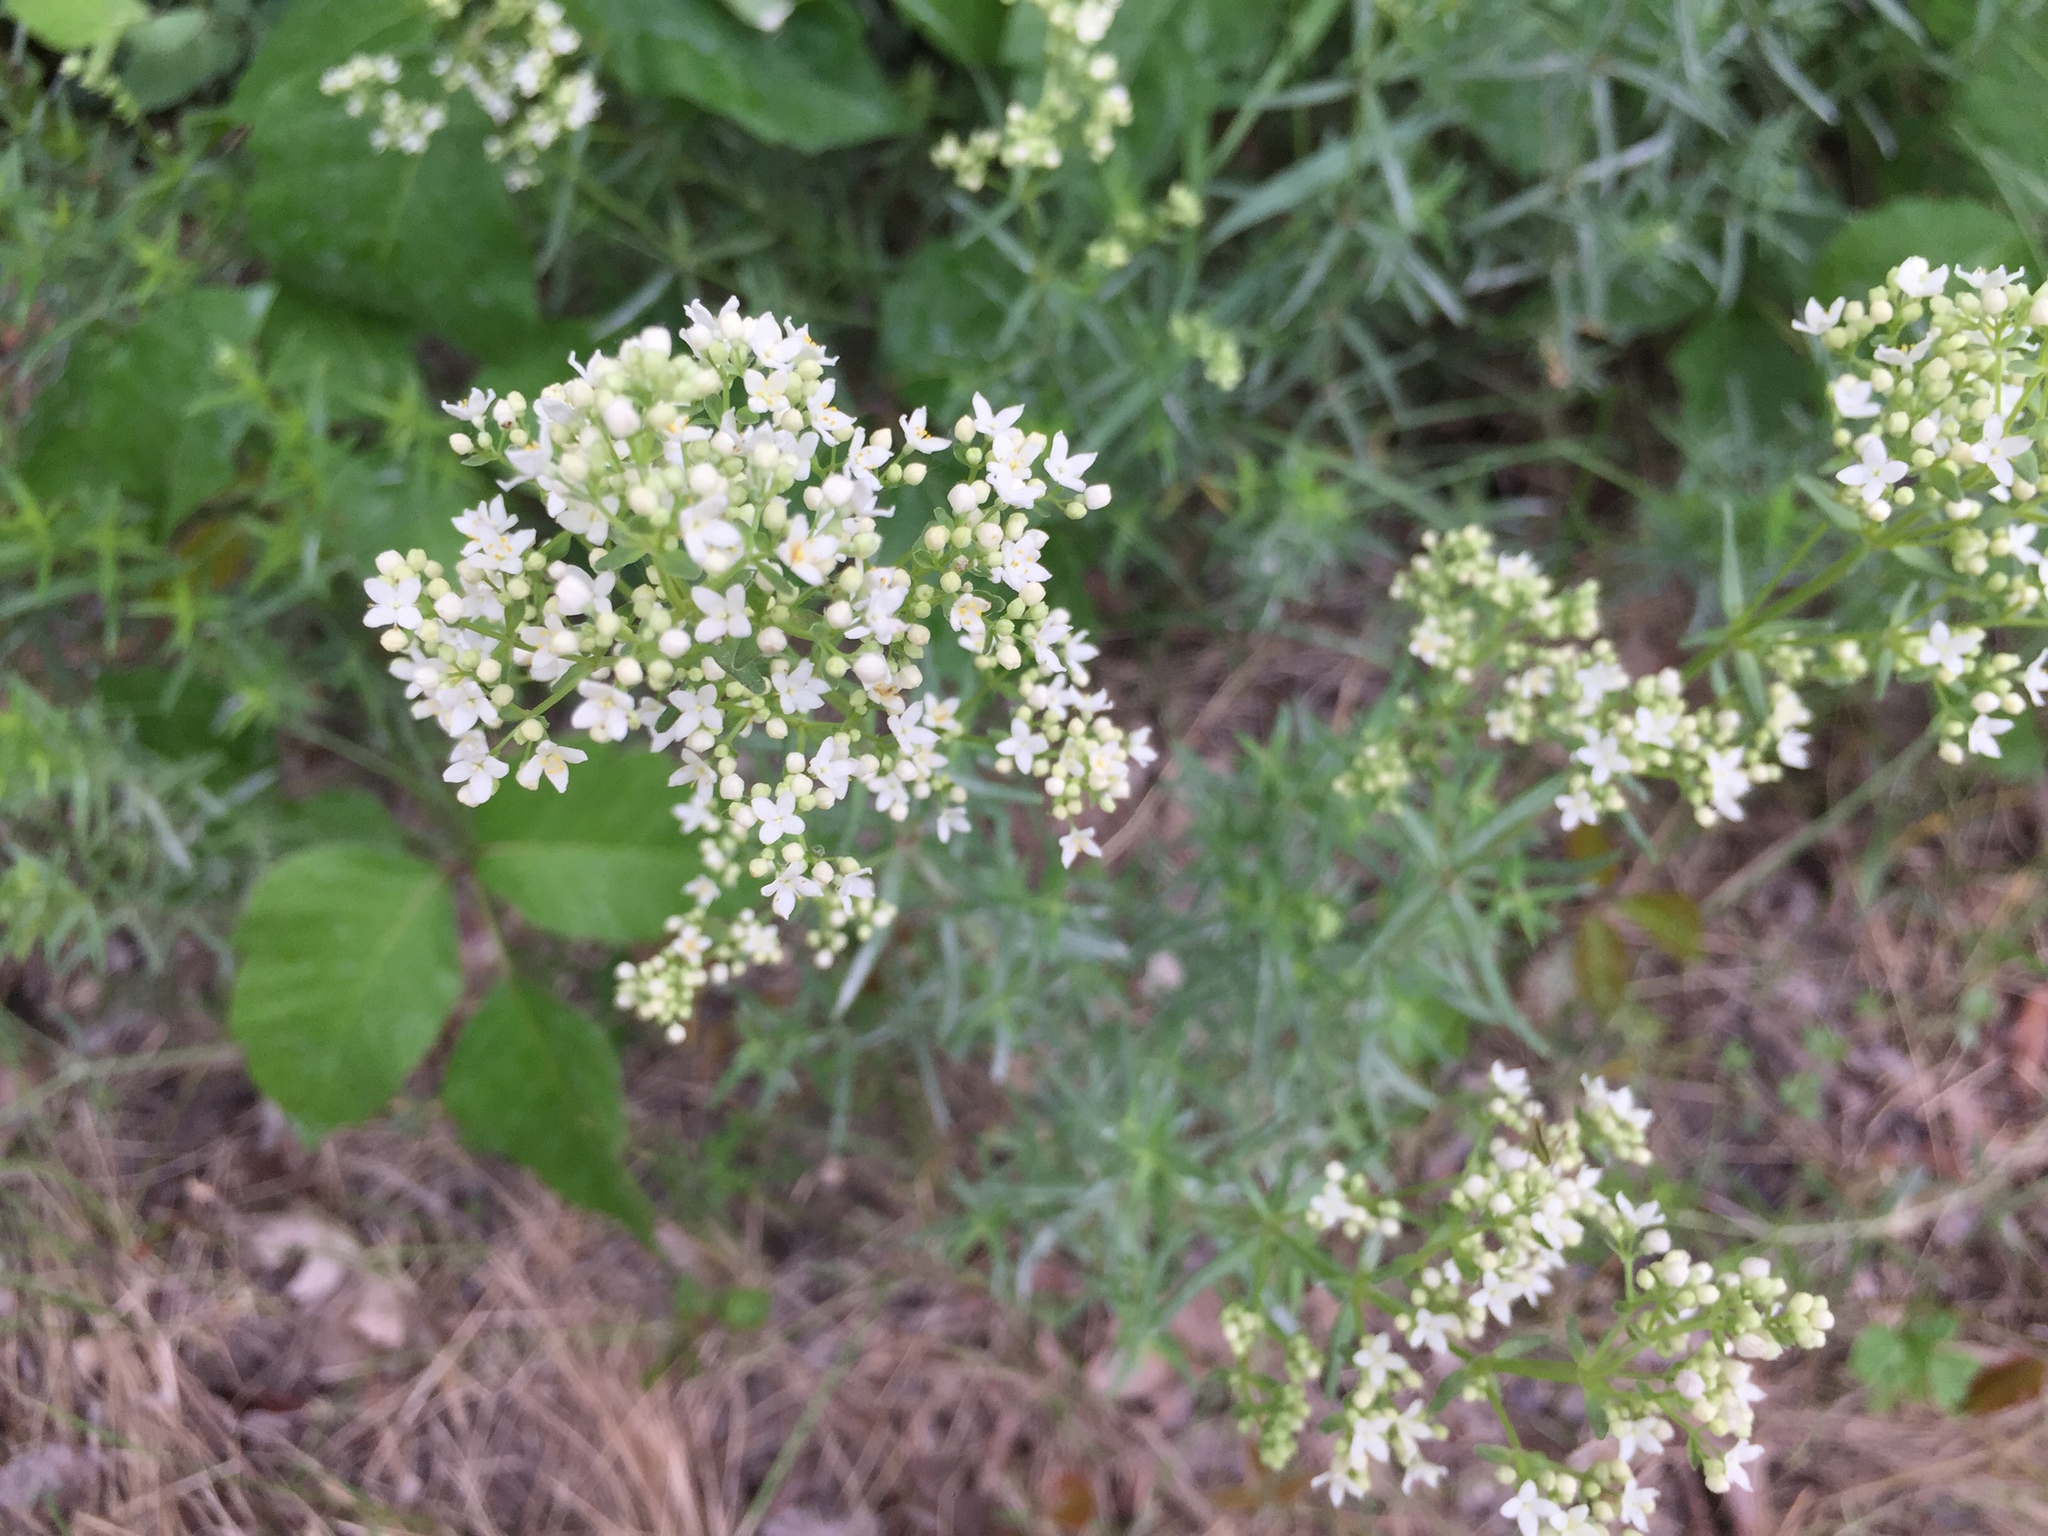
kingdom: Plantae
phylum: Tracheophyta
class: Magnoliopsida
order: Gentianales
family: Rubiaceae
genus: Galium
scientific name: Galium boreale
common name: Northern bedstraw
